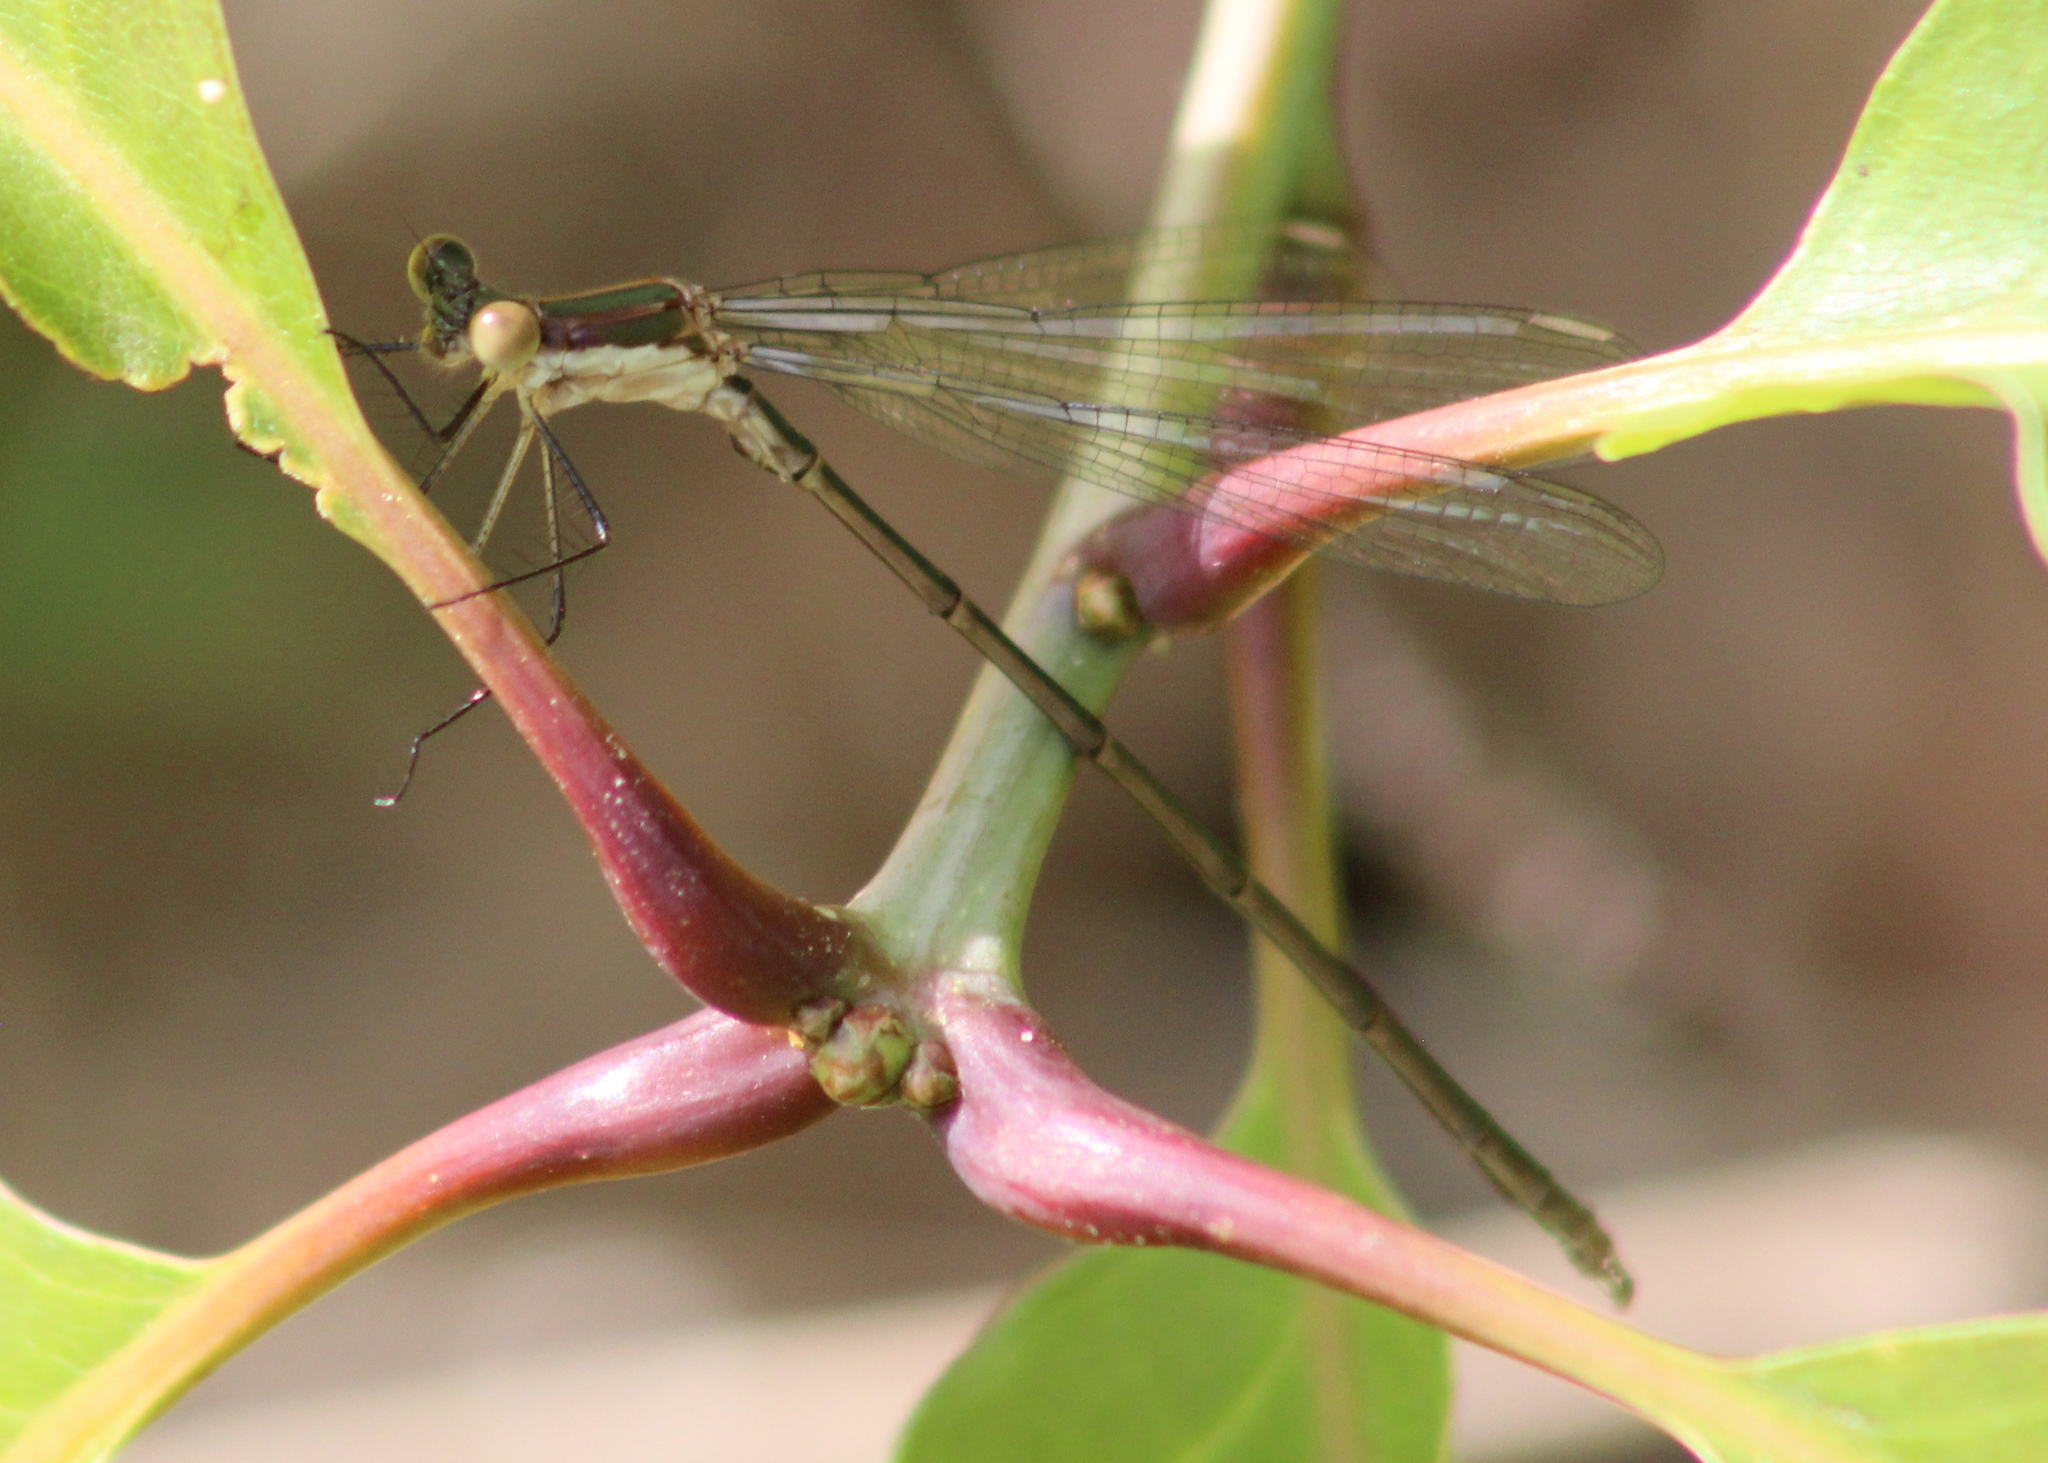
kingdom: Animalia
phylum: Arthropoda
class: Insecta
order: Odonata
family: Lestidae
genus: Lestes
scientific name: Lestes vigilax
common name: Swamp spreadwing
